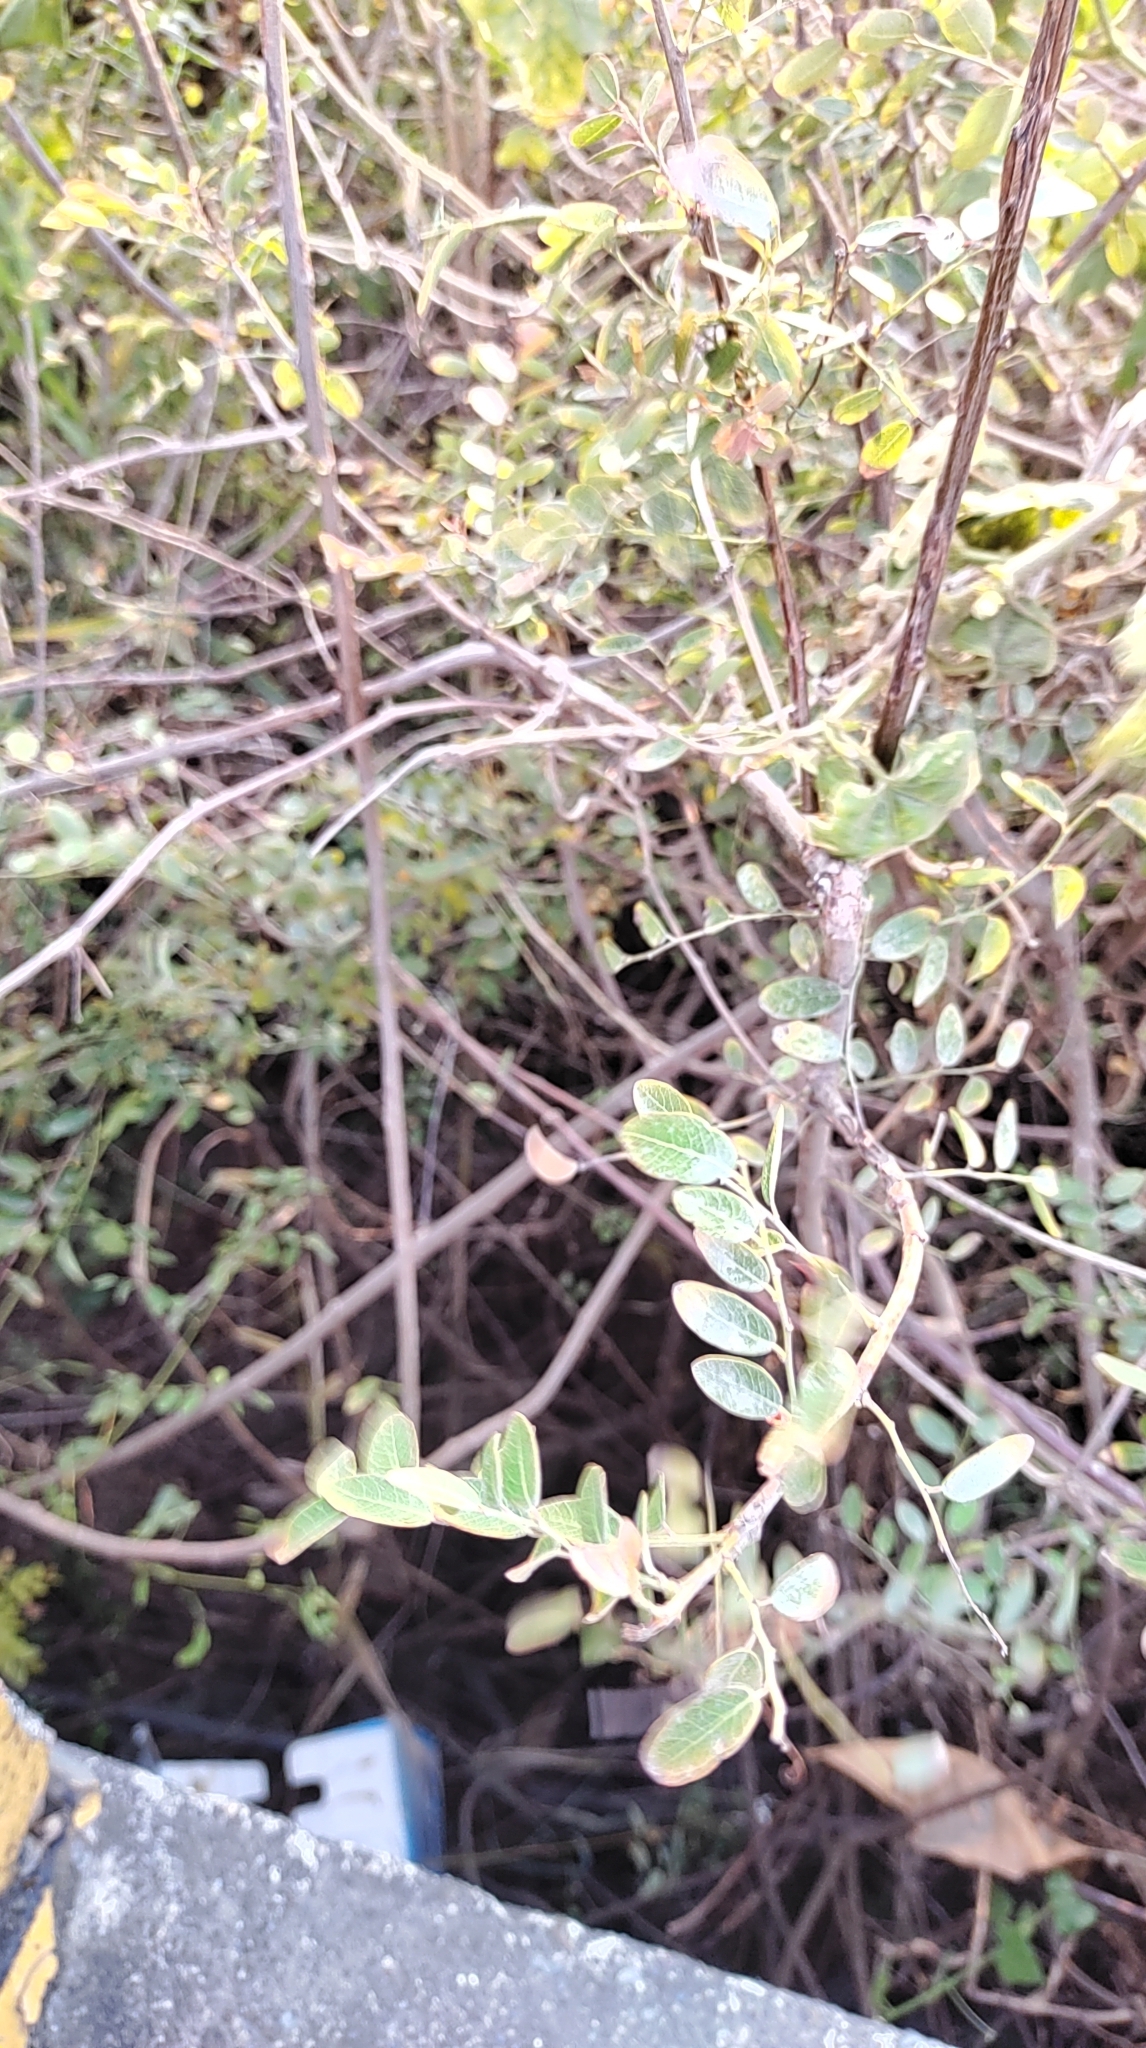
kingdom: Plantae
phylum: Tracheophyta
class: Magnoliopsida
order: Malpighiales
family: Phyllanthaceae
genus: Phyllanthus
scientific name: Phyllanthus reticulatus
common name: Potato bush
